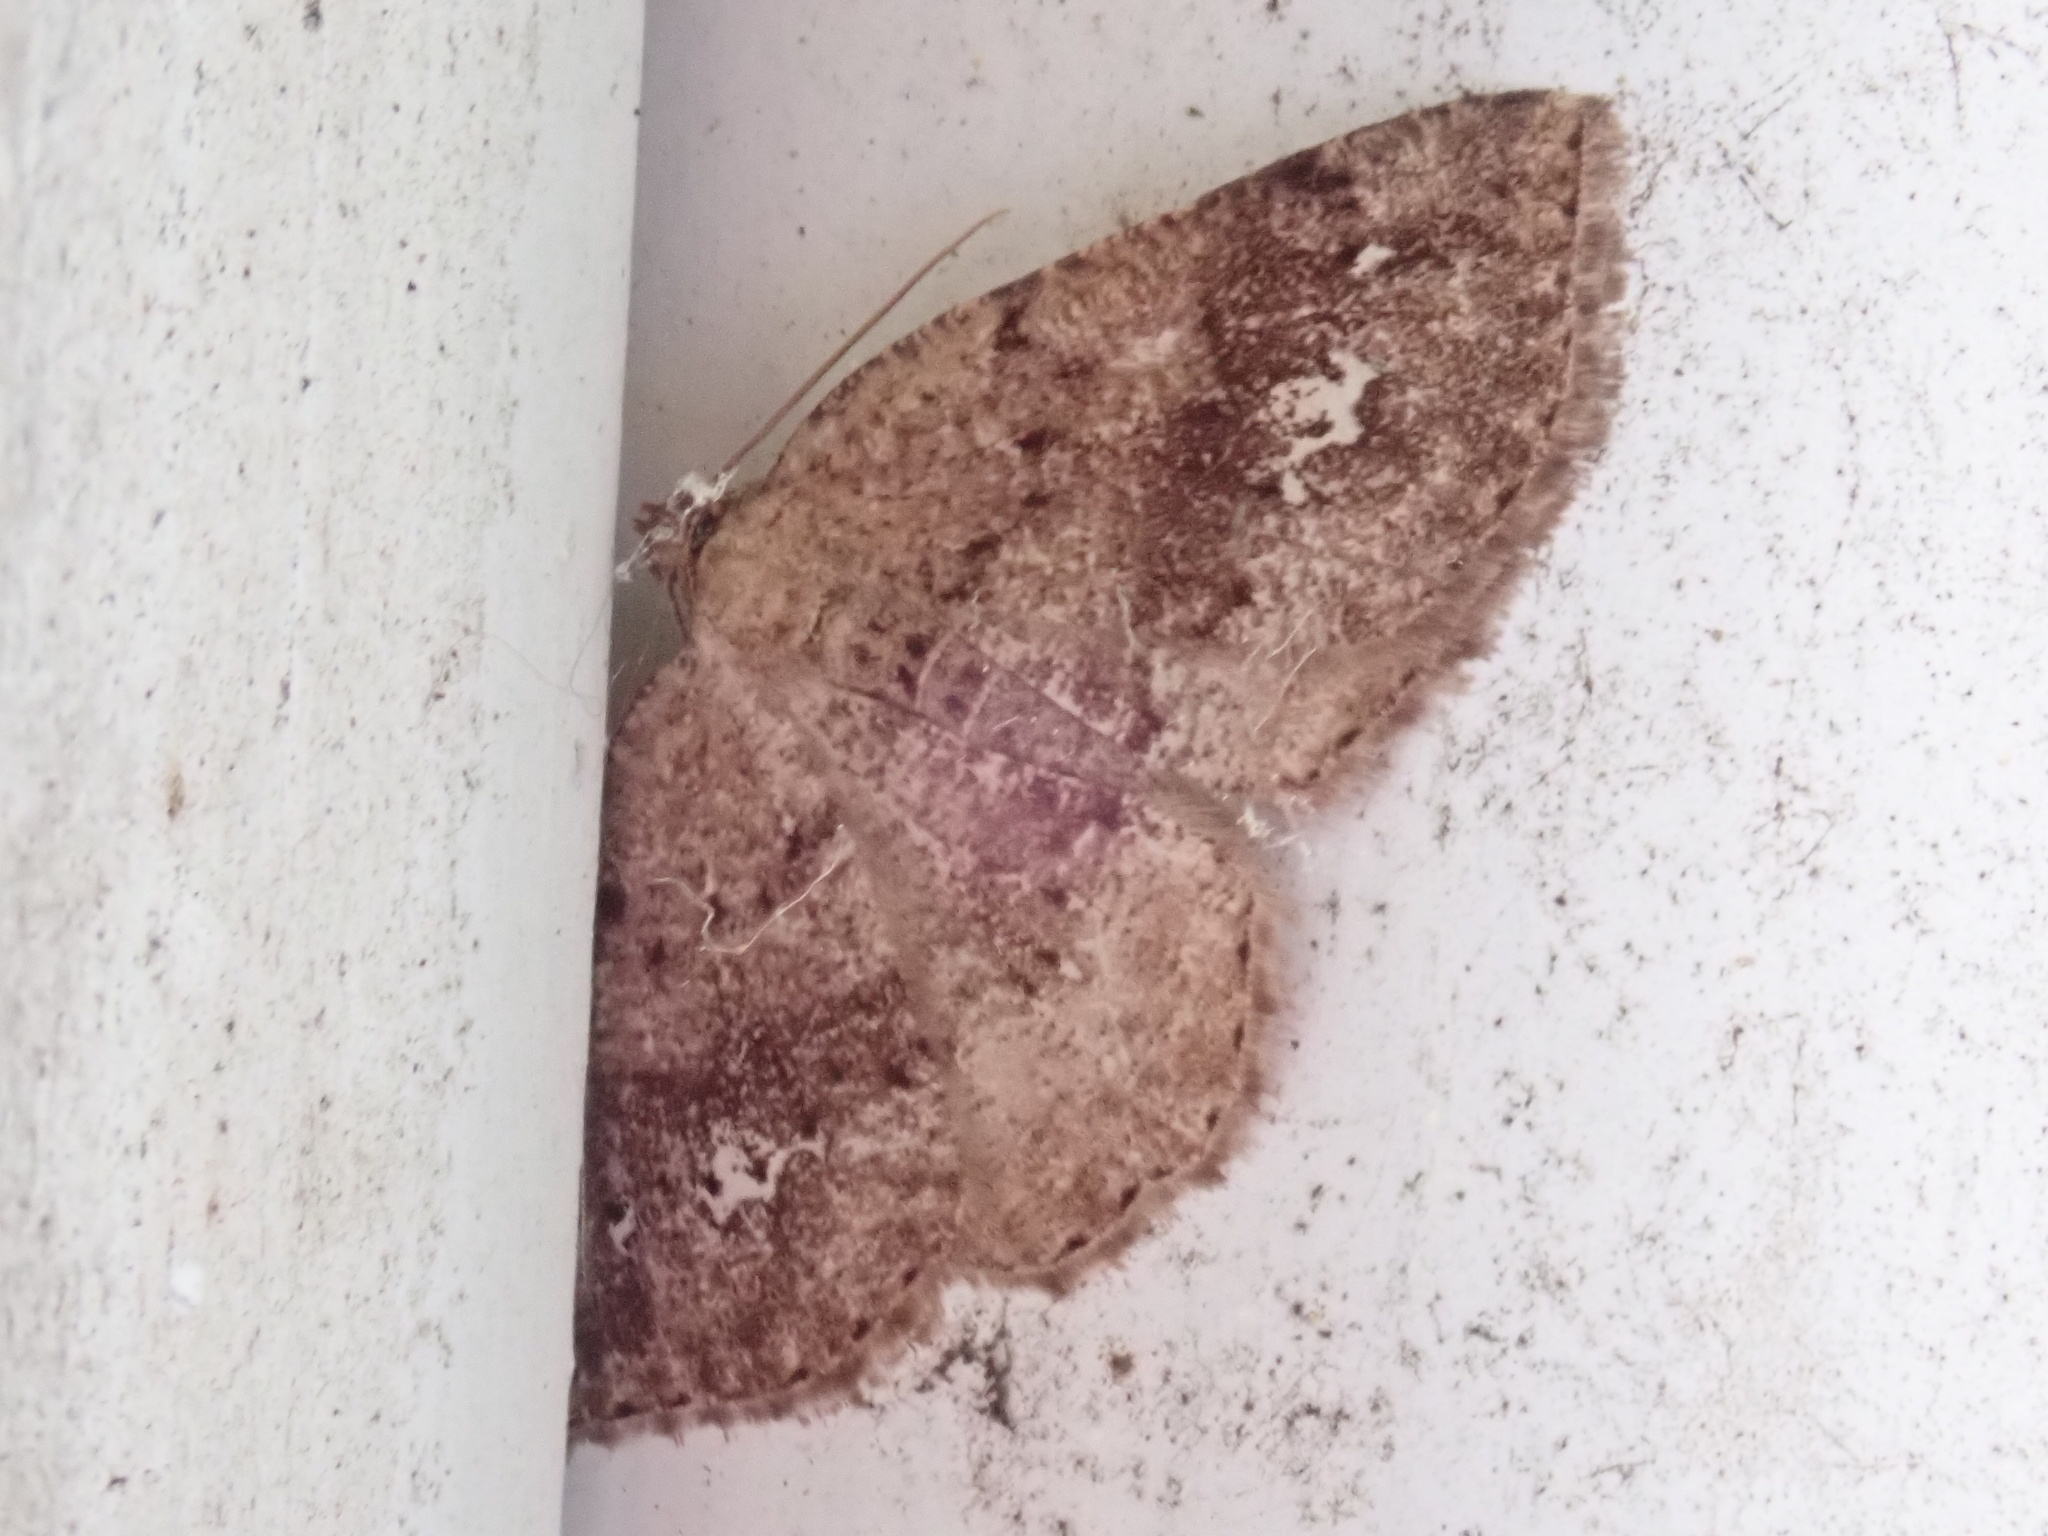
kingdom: Animalia
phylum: Arthropoda
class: Insecta
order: Lepidoptera
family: Geometridae
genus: Homochlodes
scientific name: Homochlodes fritillaria
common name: Pale homochlodes
